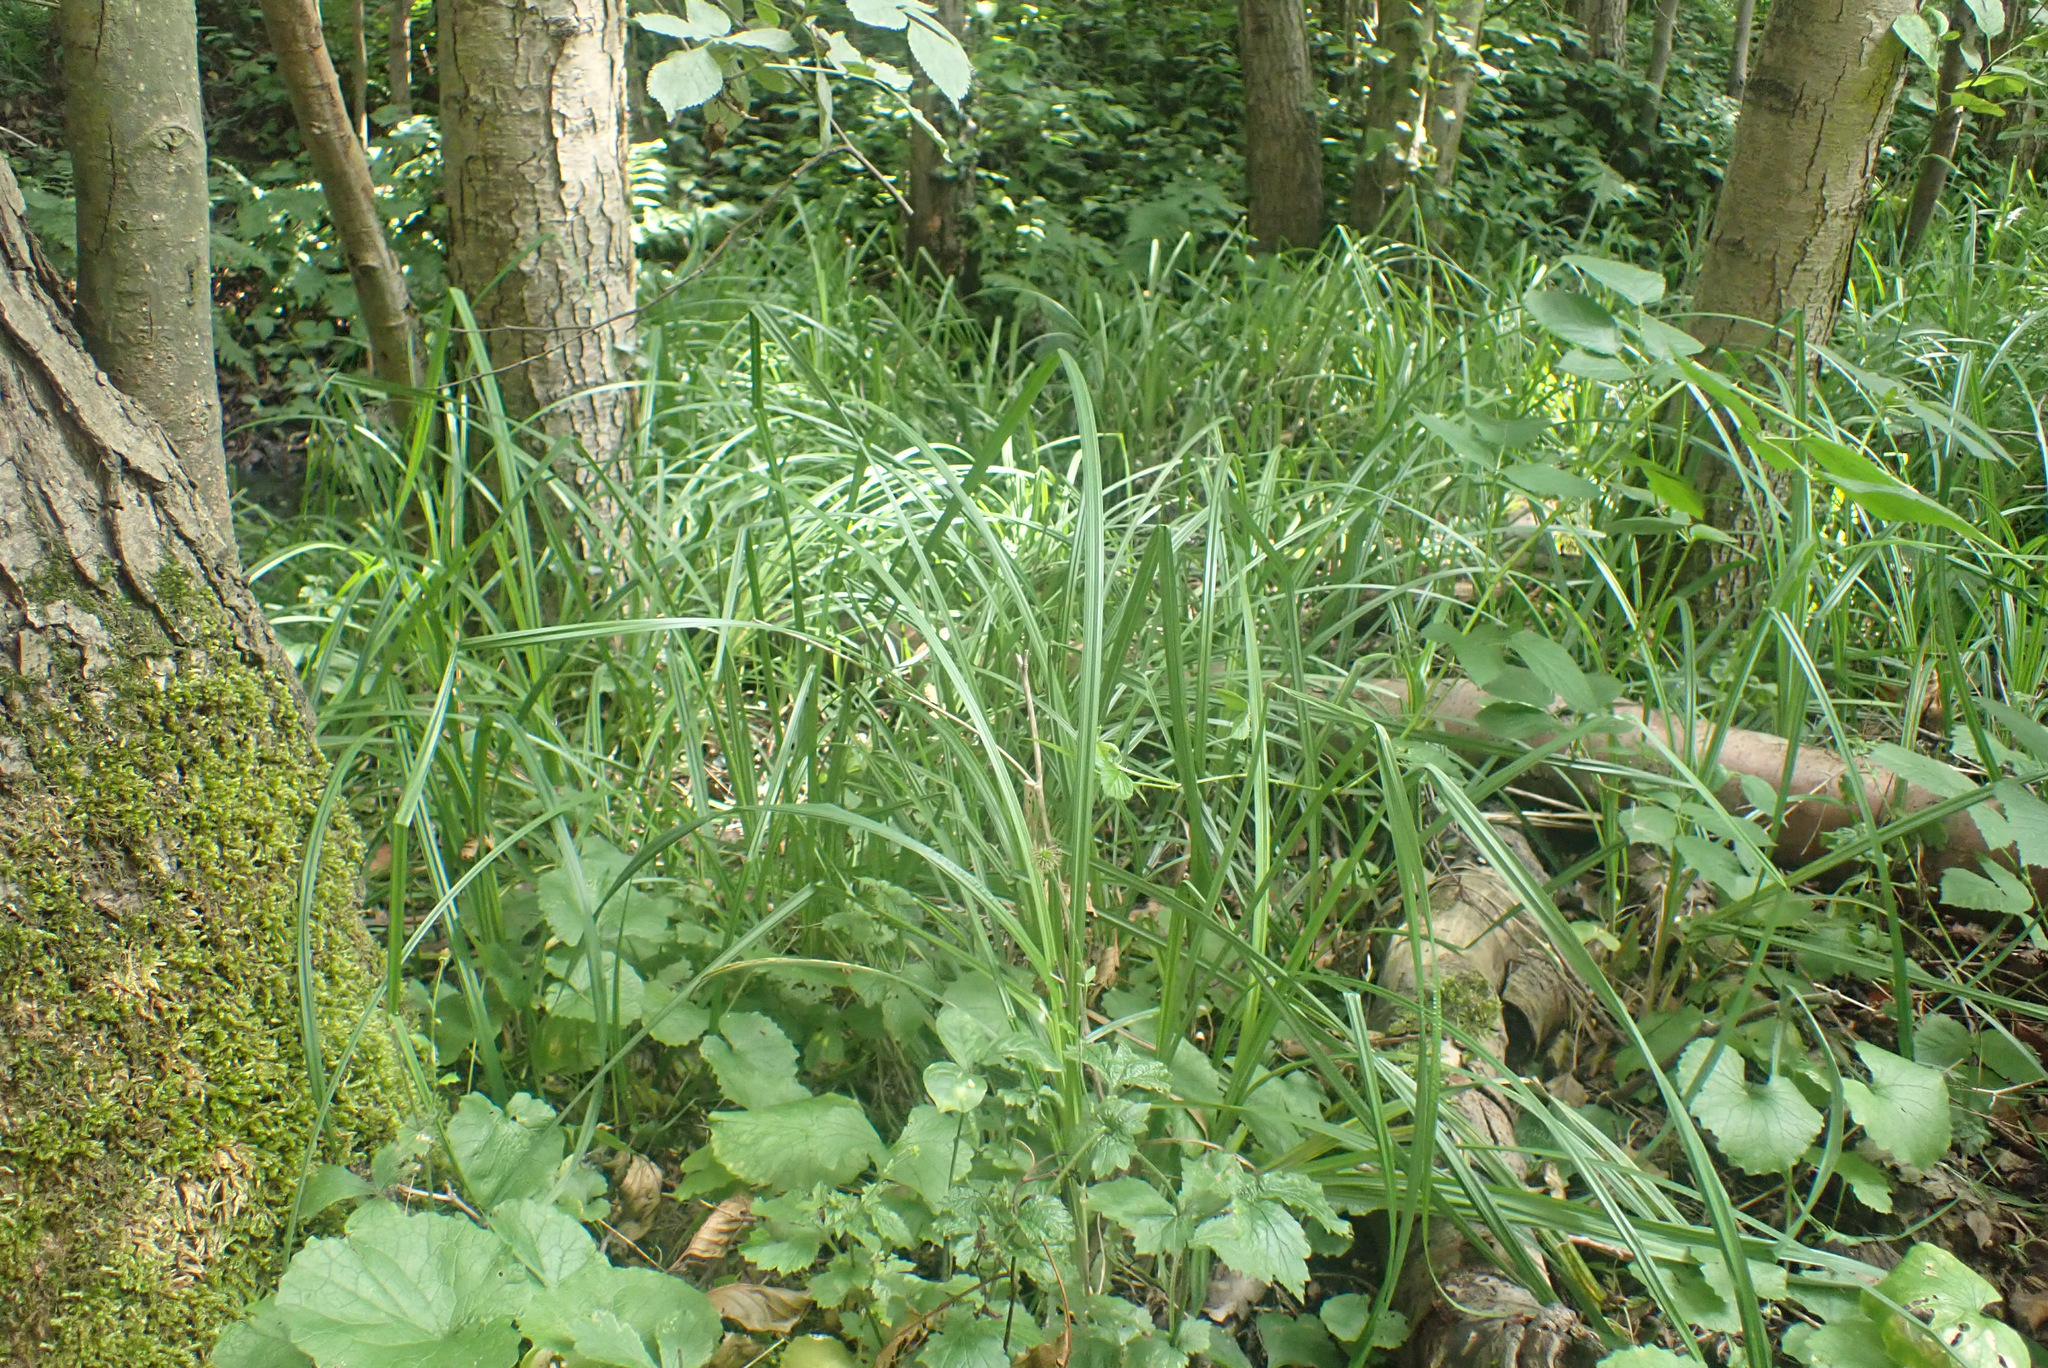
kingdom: Plantae
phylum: Tracheophyta
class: Liliopsida
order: Poales
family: Cyperaceae
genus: Carex
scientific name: Carex acutiformis
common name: Lesser pond-sedge
